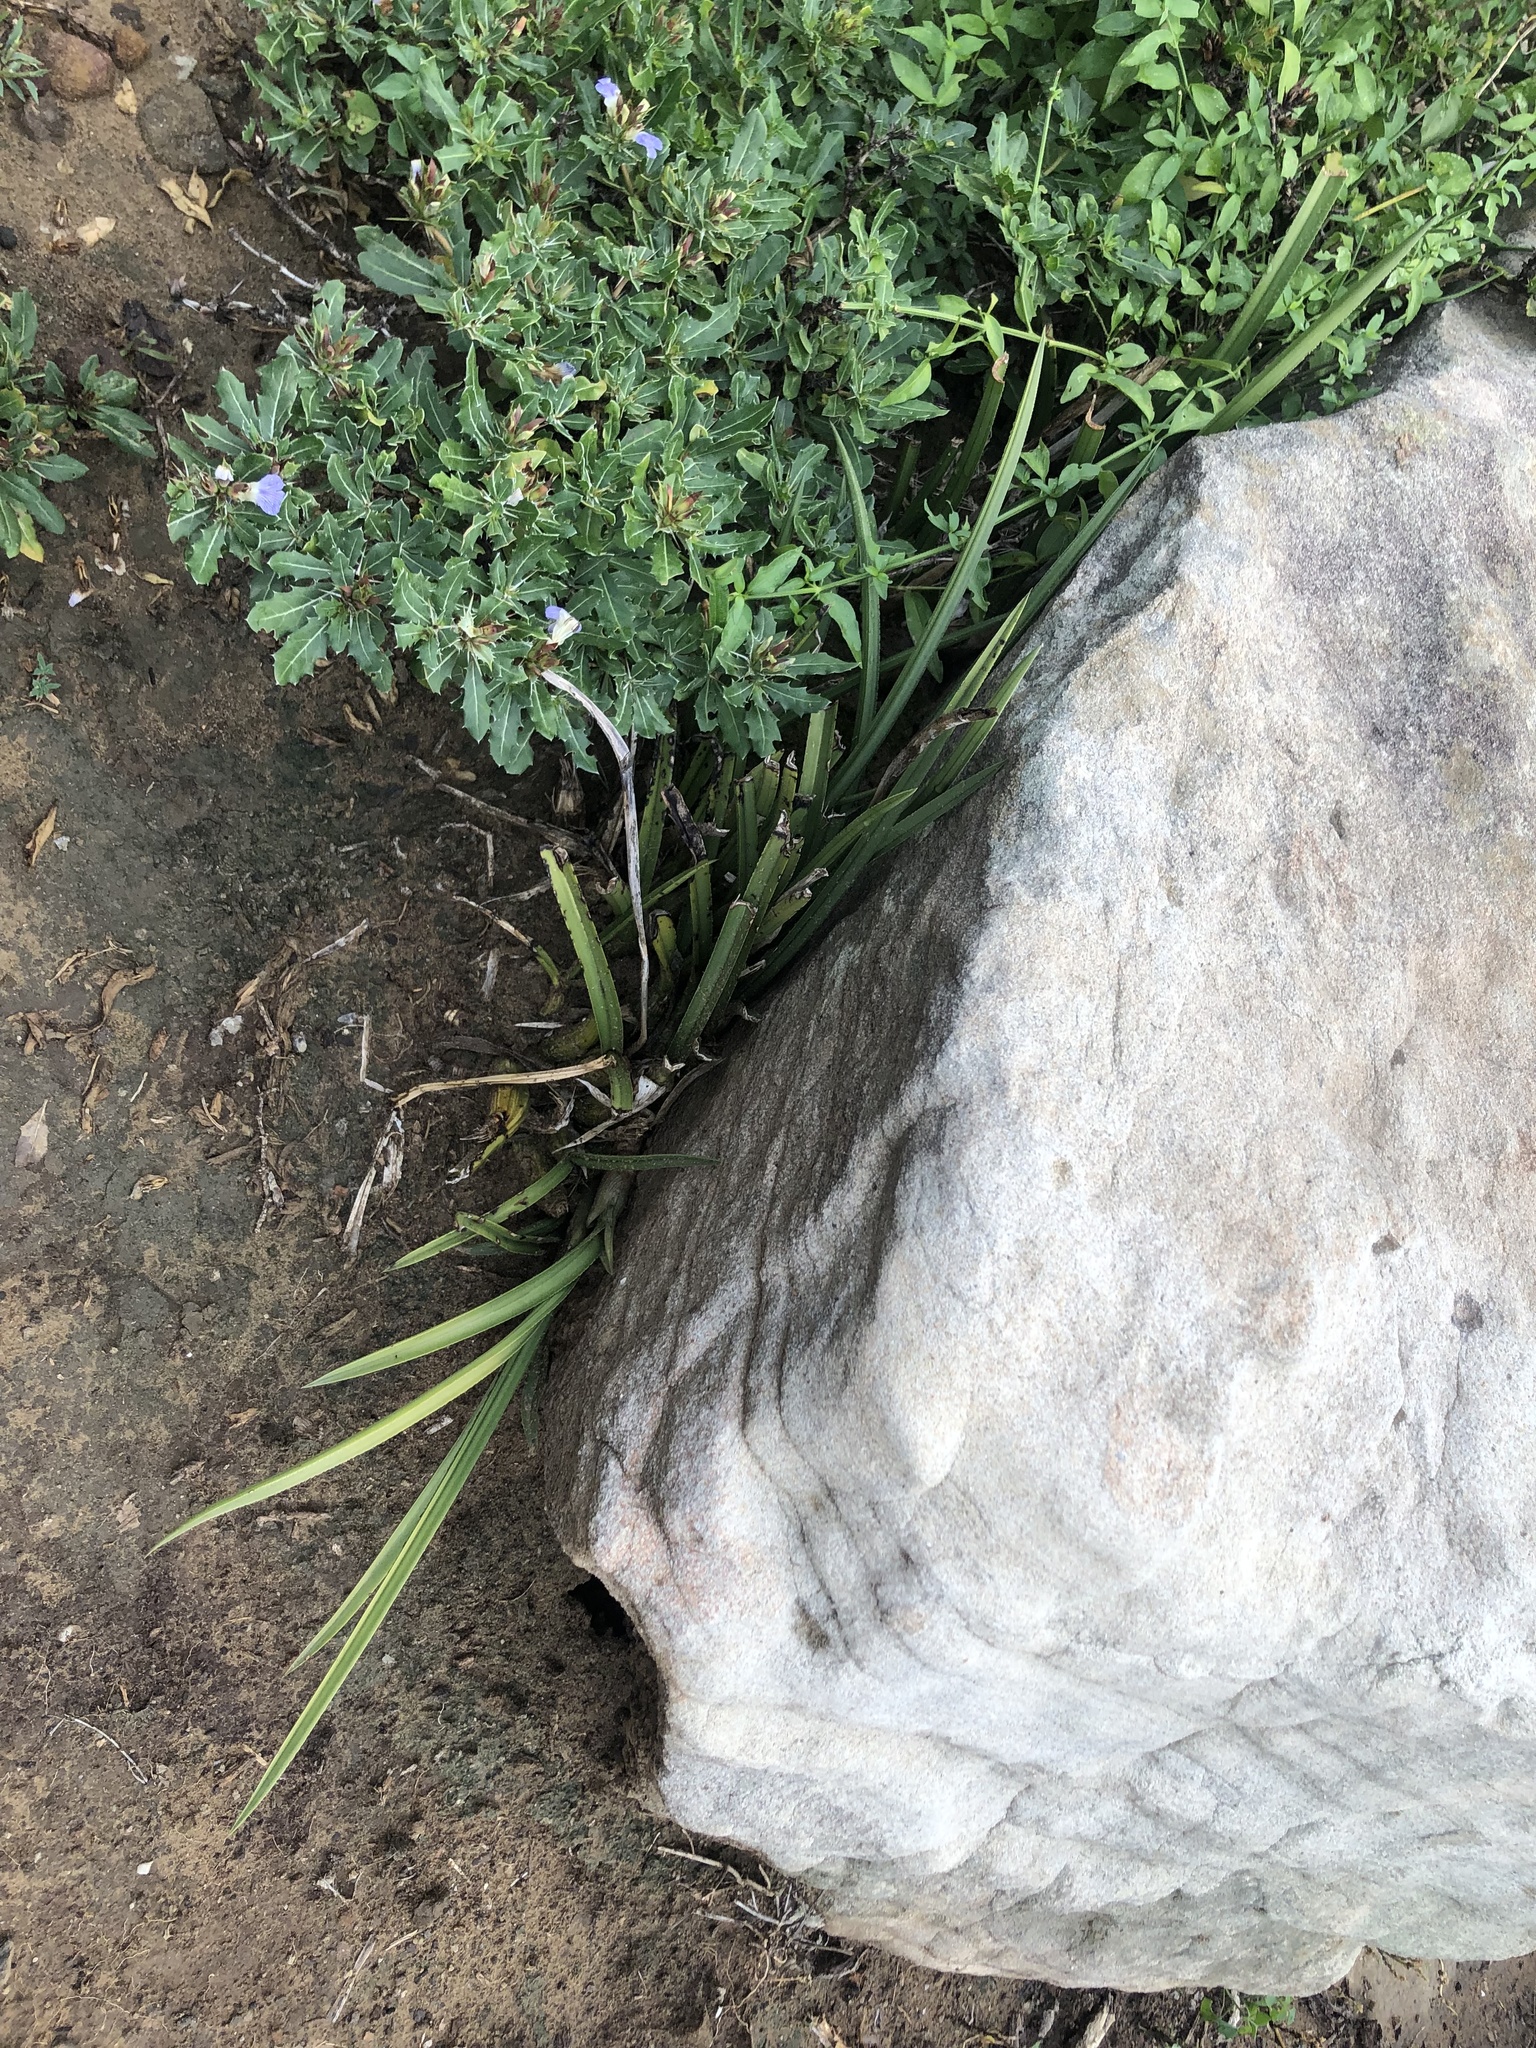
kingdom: Plantae
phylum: Tracheophyta
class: Liliopsida
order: Asparagales
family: Orchidaceae
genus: Eulophia
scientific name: Eulophia petersii
